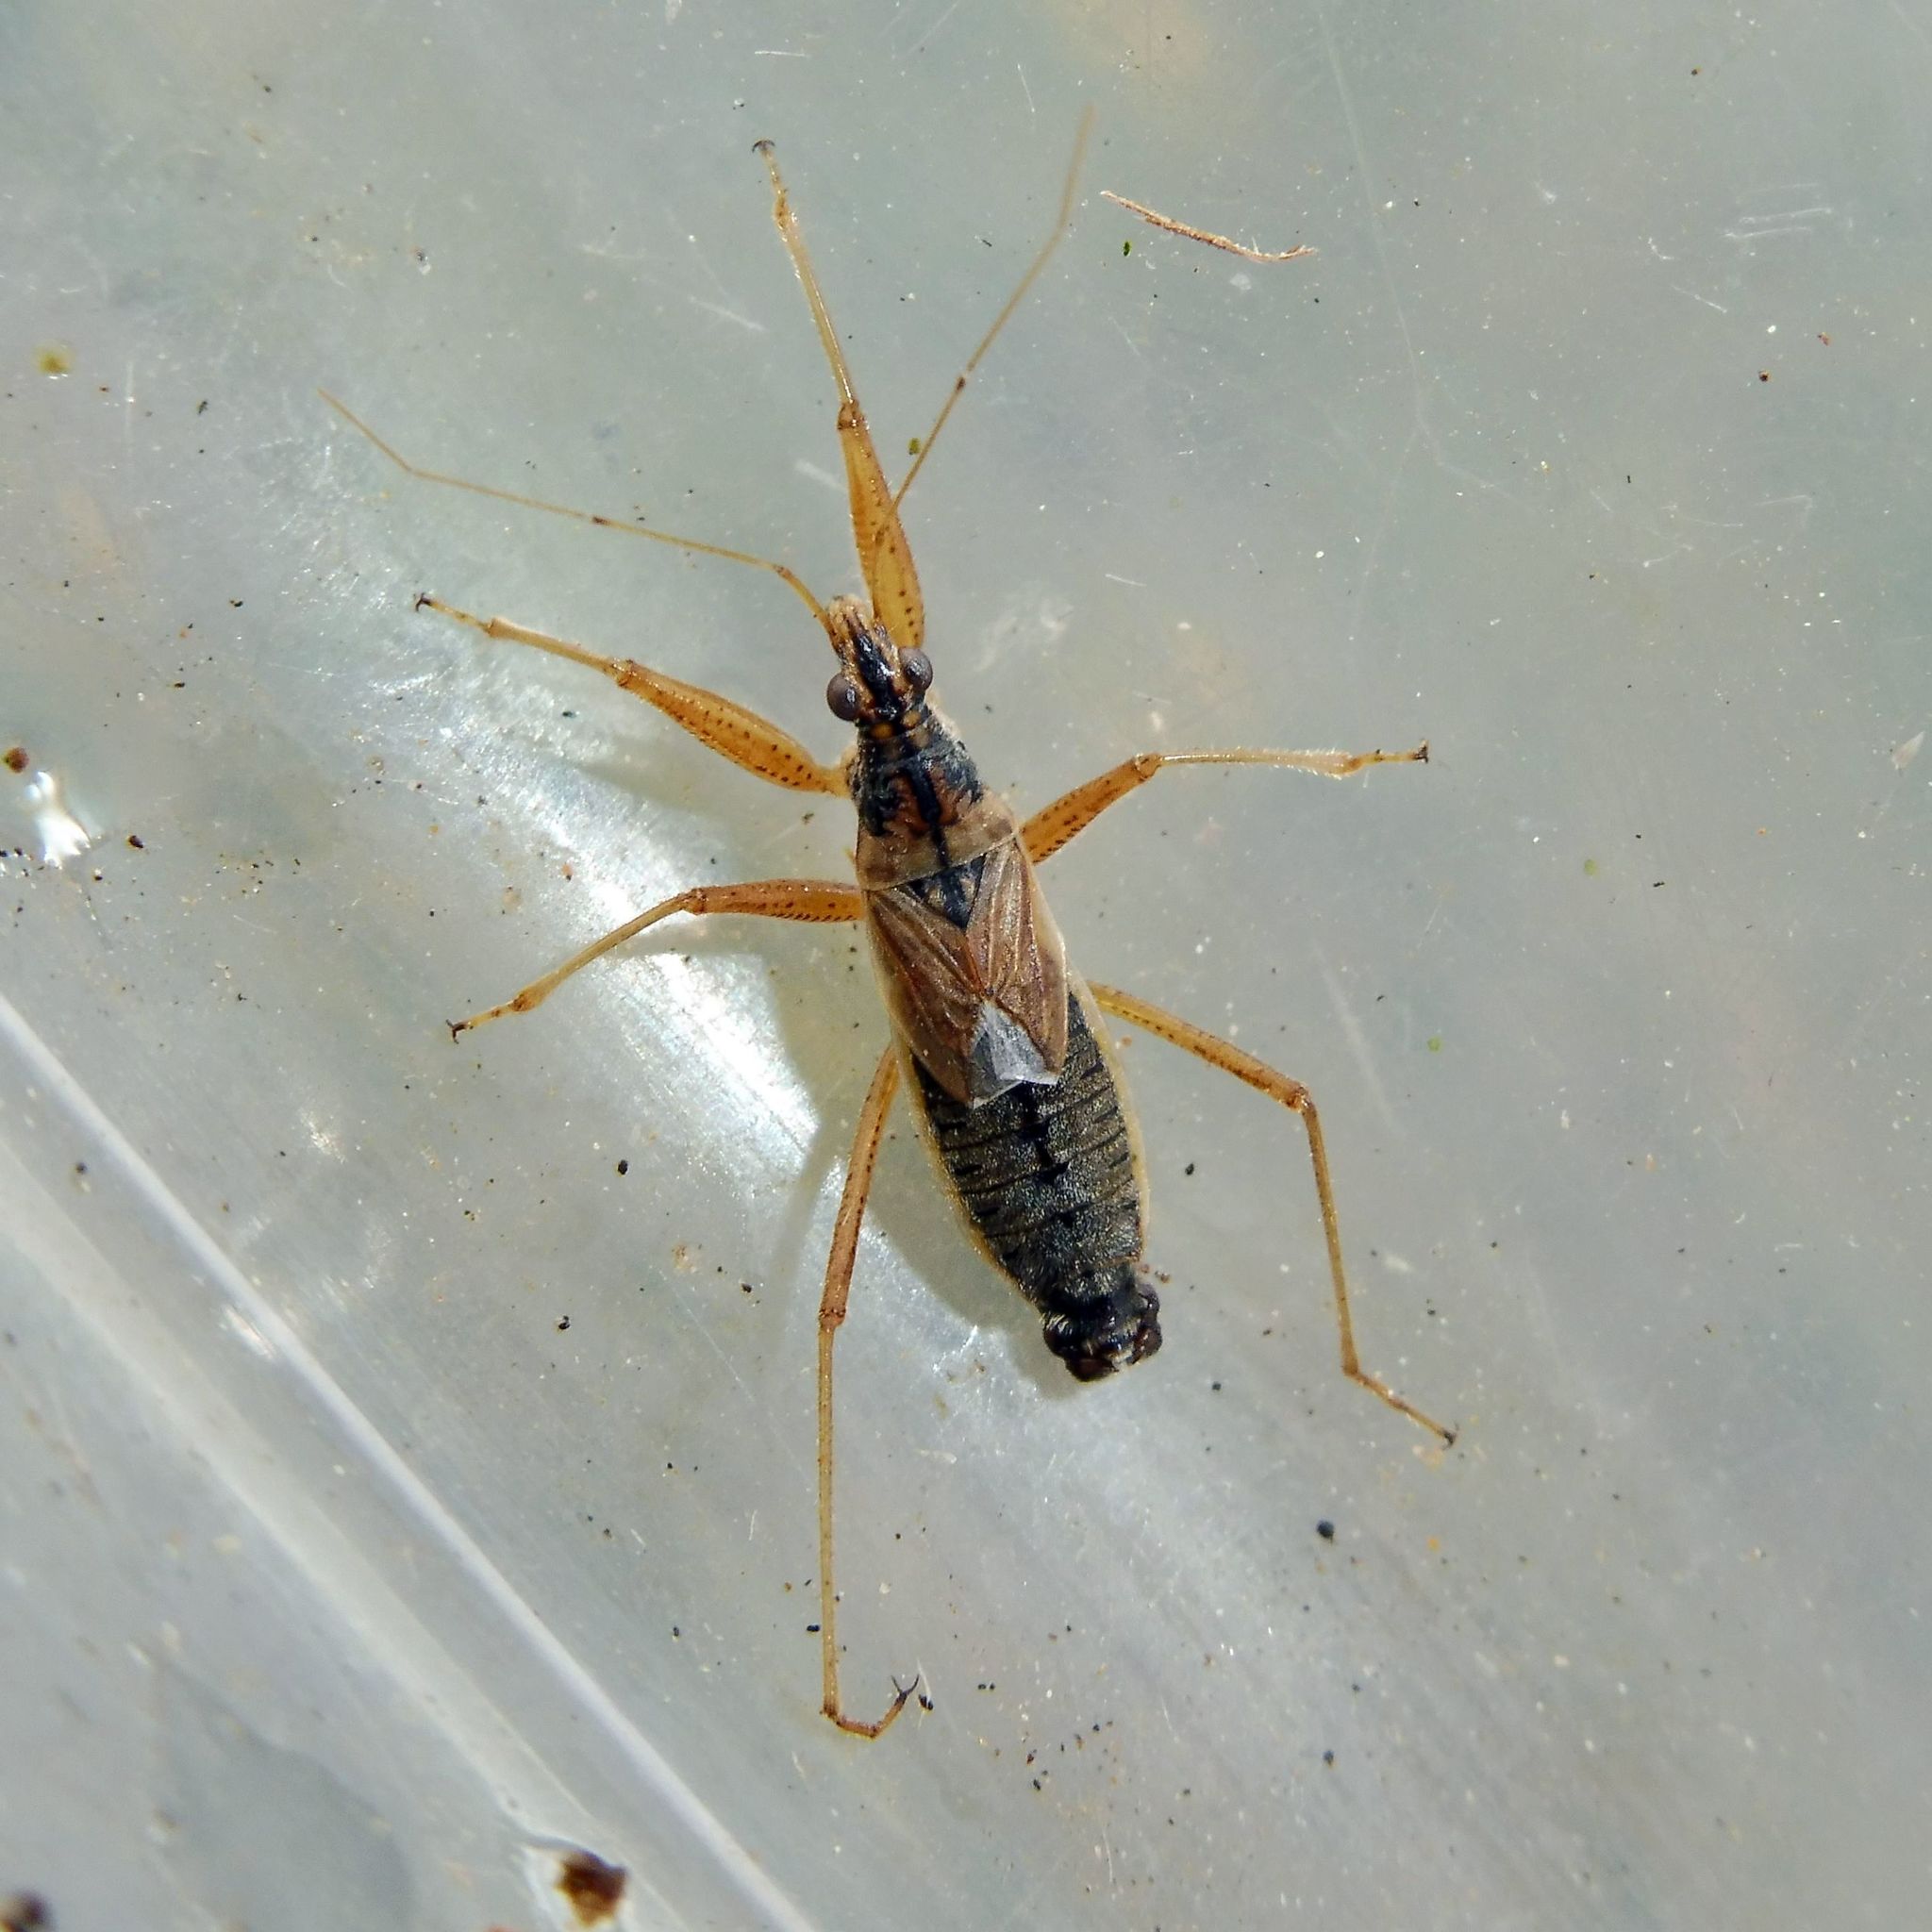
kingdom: Animalia
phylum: Arthropoda
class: Insecta
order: Hemiptera
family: Nabidae
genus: Nabis
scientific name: Nabis flavomarginatus
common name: Broad damselbug
